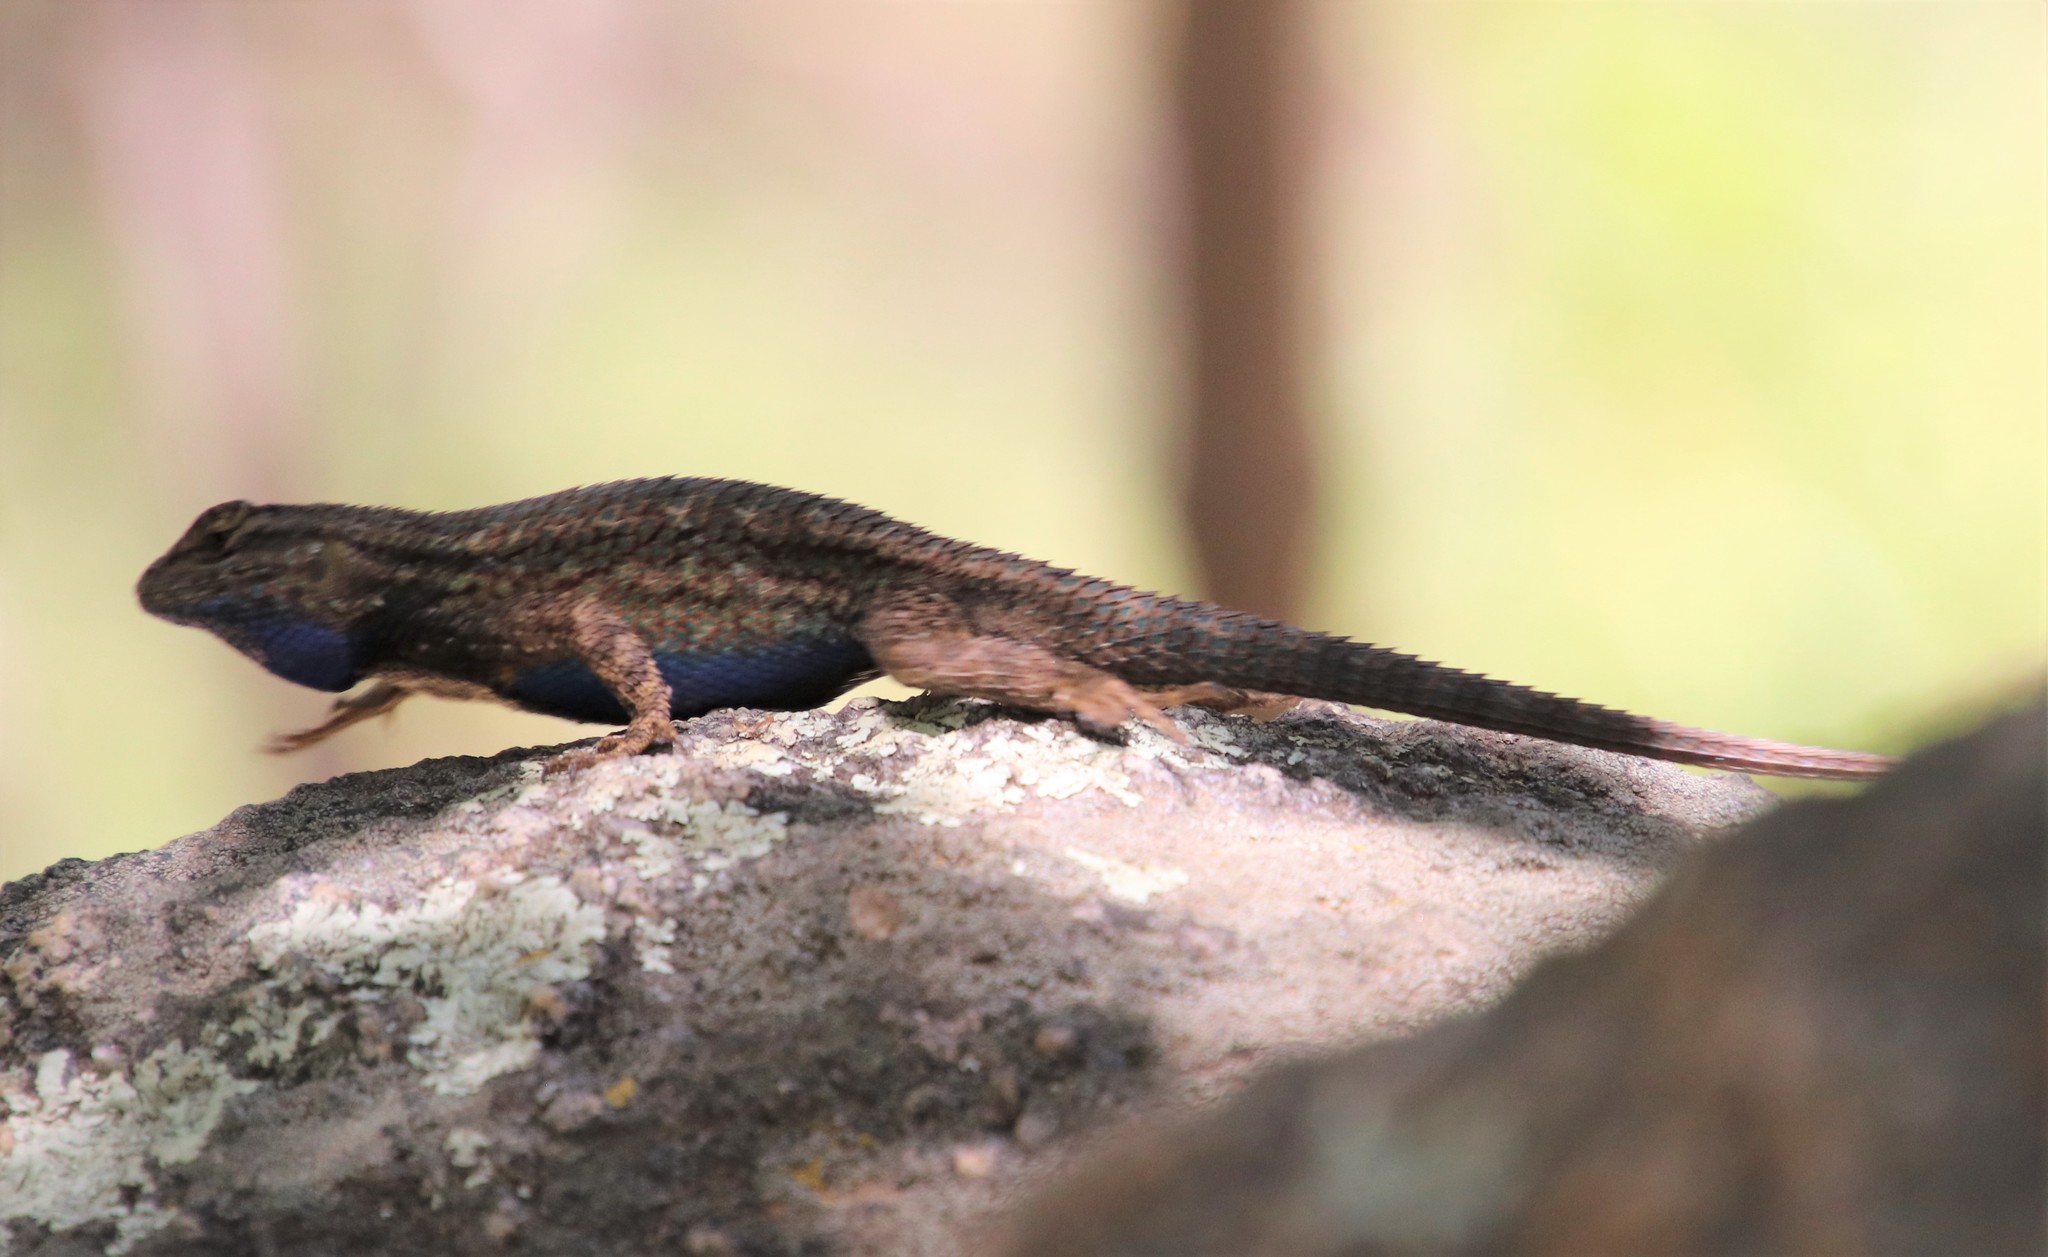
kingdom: Animalia
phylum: Chordata
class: Squamata
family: Phrynosomatidae
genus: Sceloporus
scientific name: Sceloporus occidentalis
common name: Western fence lizard
